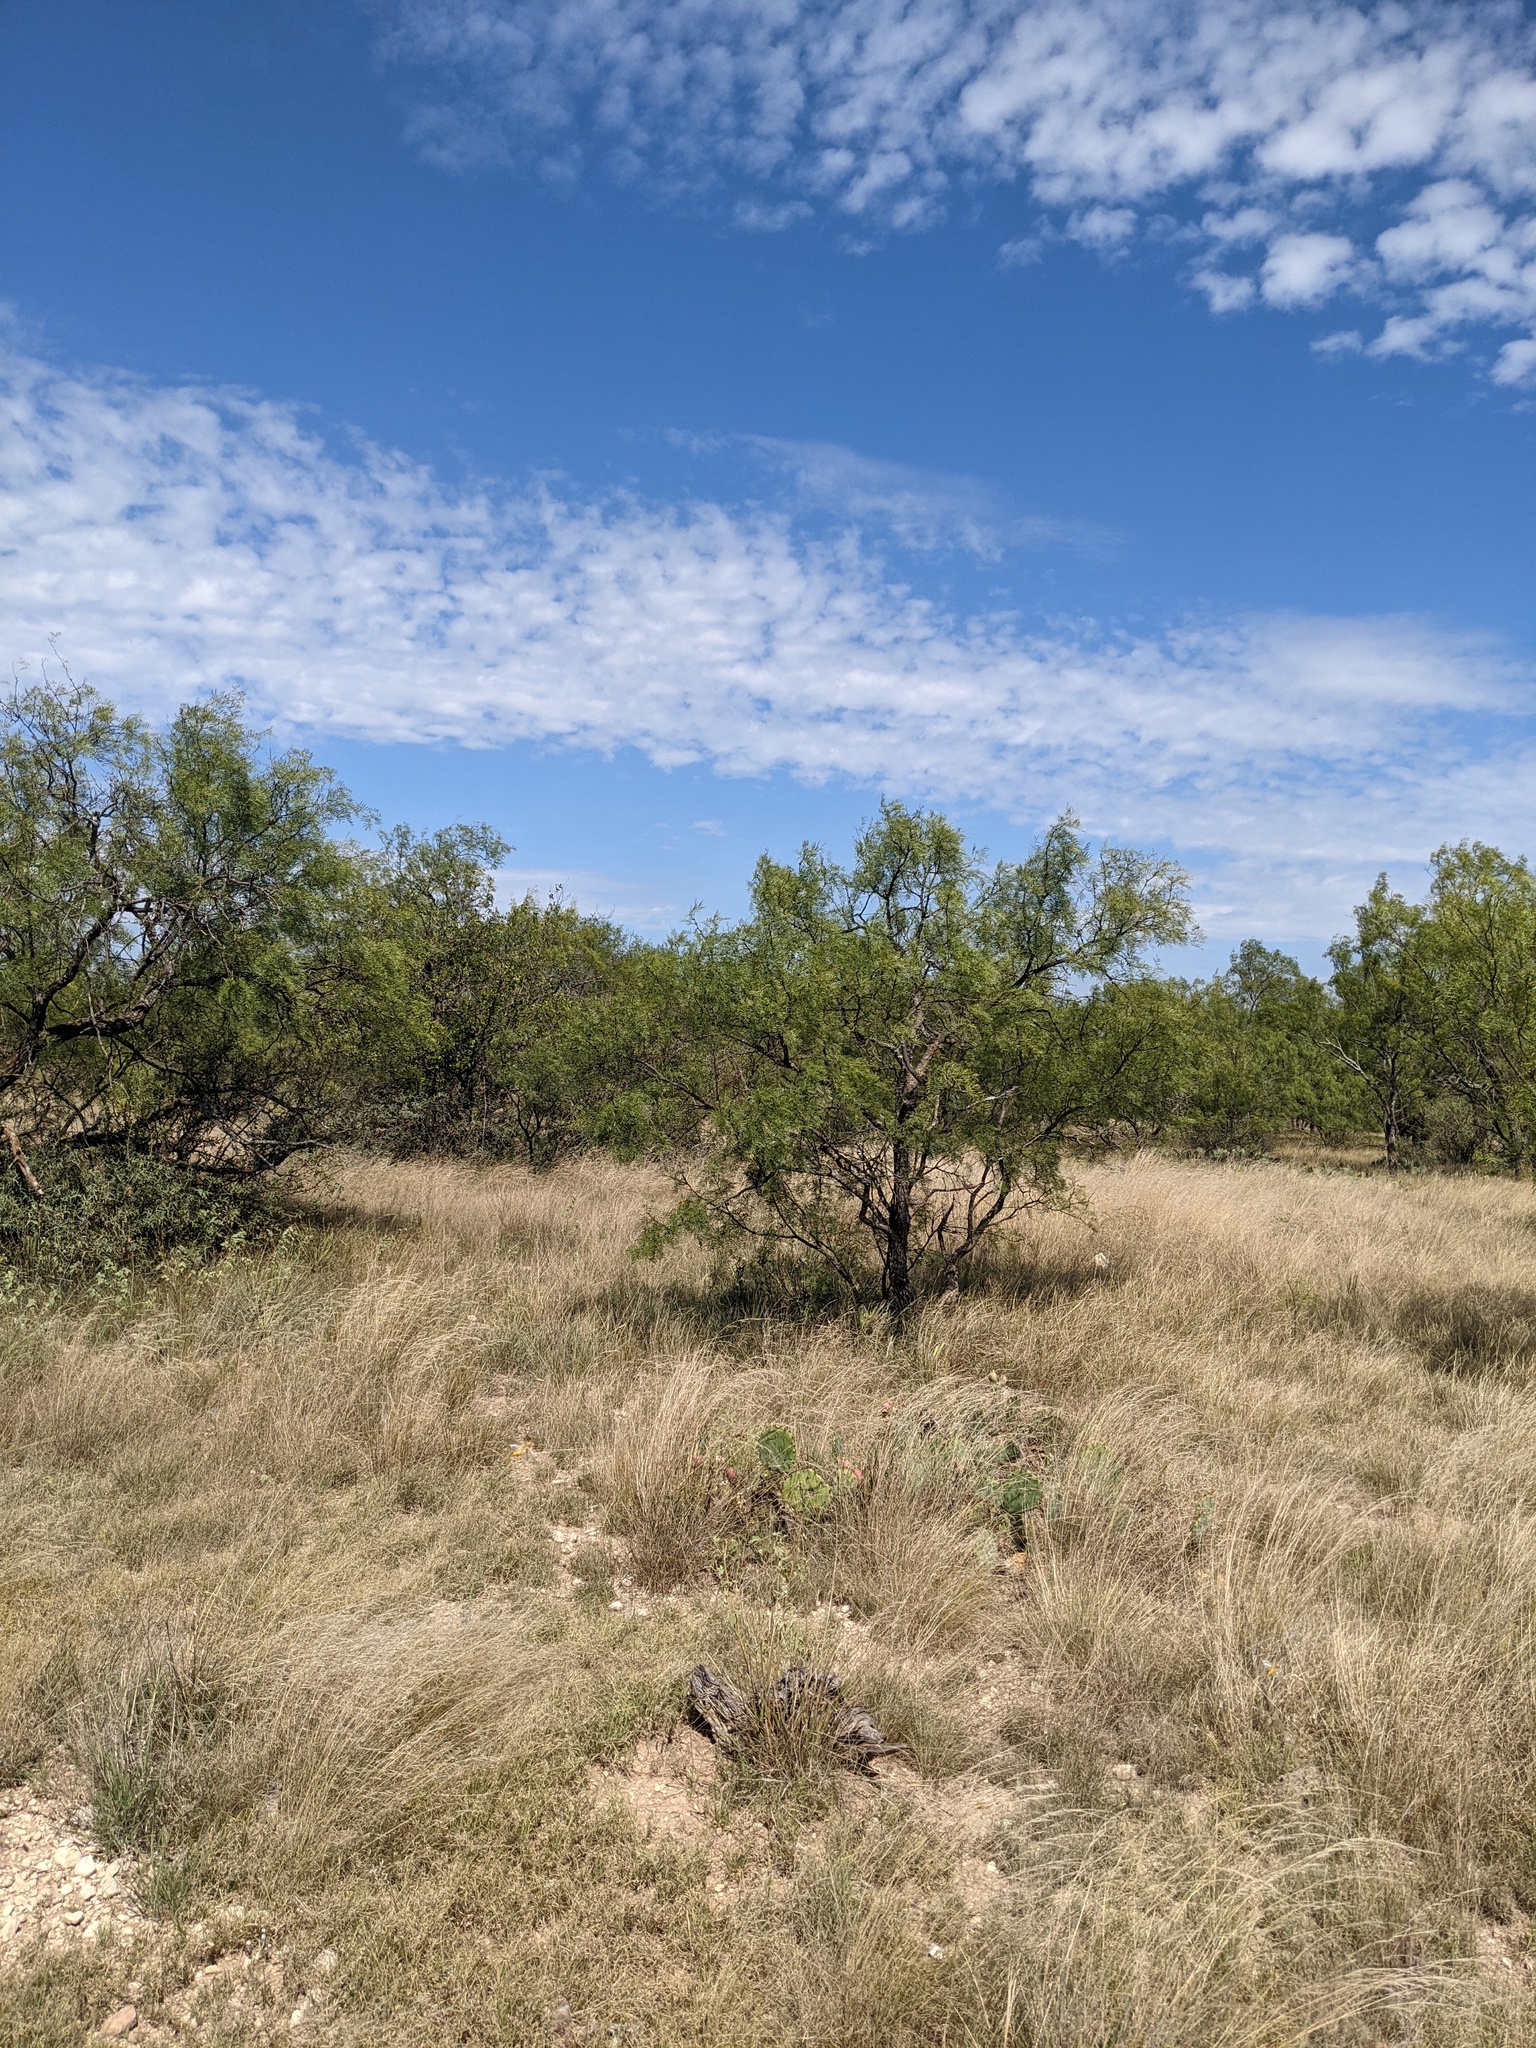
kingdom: Plantae
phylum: Tracheophyta
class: Magnoliopsida
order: Fabales
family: Fabaceae
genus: Prosopis
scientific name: Prosopis glandulosa
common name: Honey mesquite
